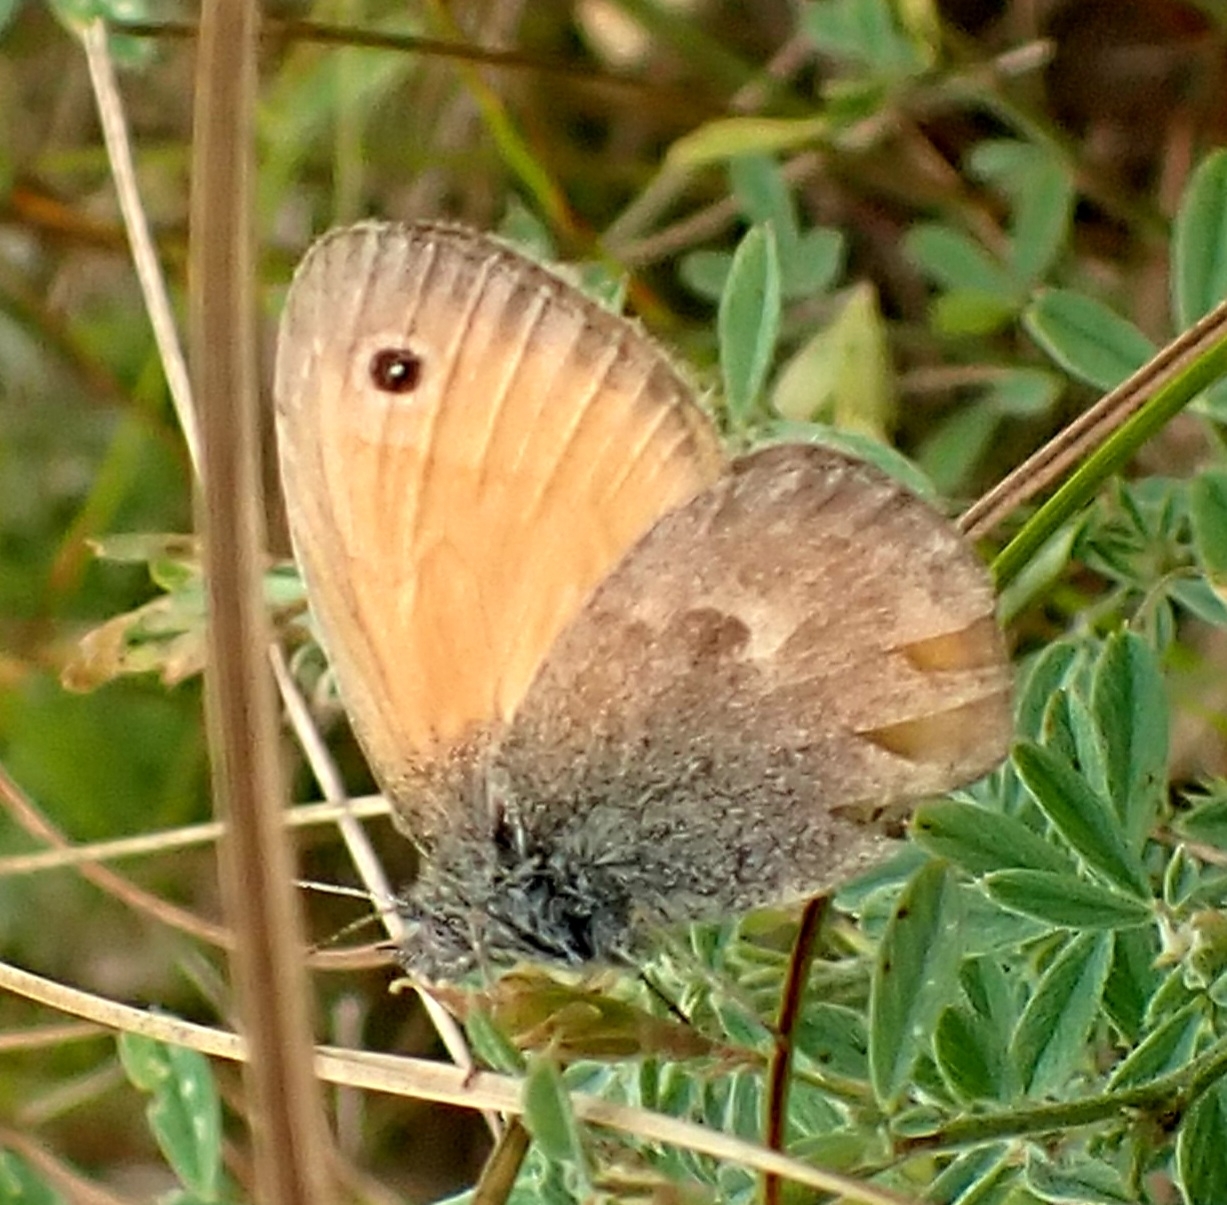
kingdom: Animalia
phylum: Arthropoda
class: Insecta
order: Lepidoptera
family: Nymphalidae
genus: Coenonympha
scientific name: Coenonympha pamphilus
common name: Small heath
